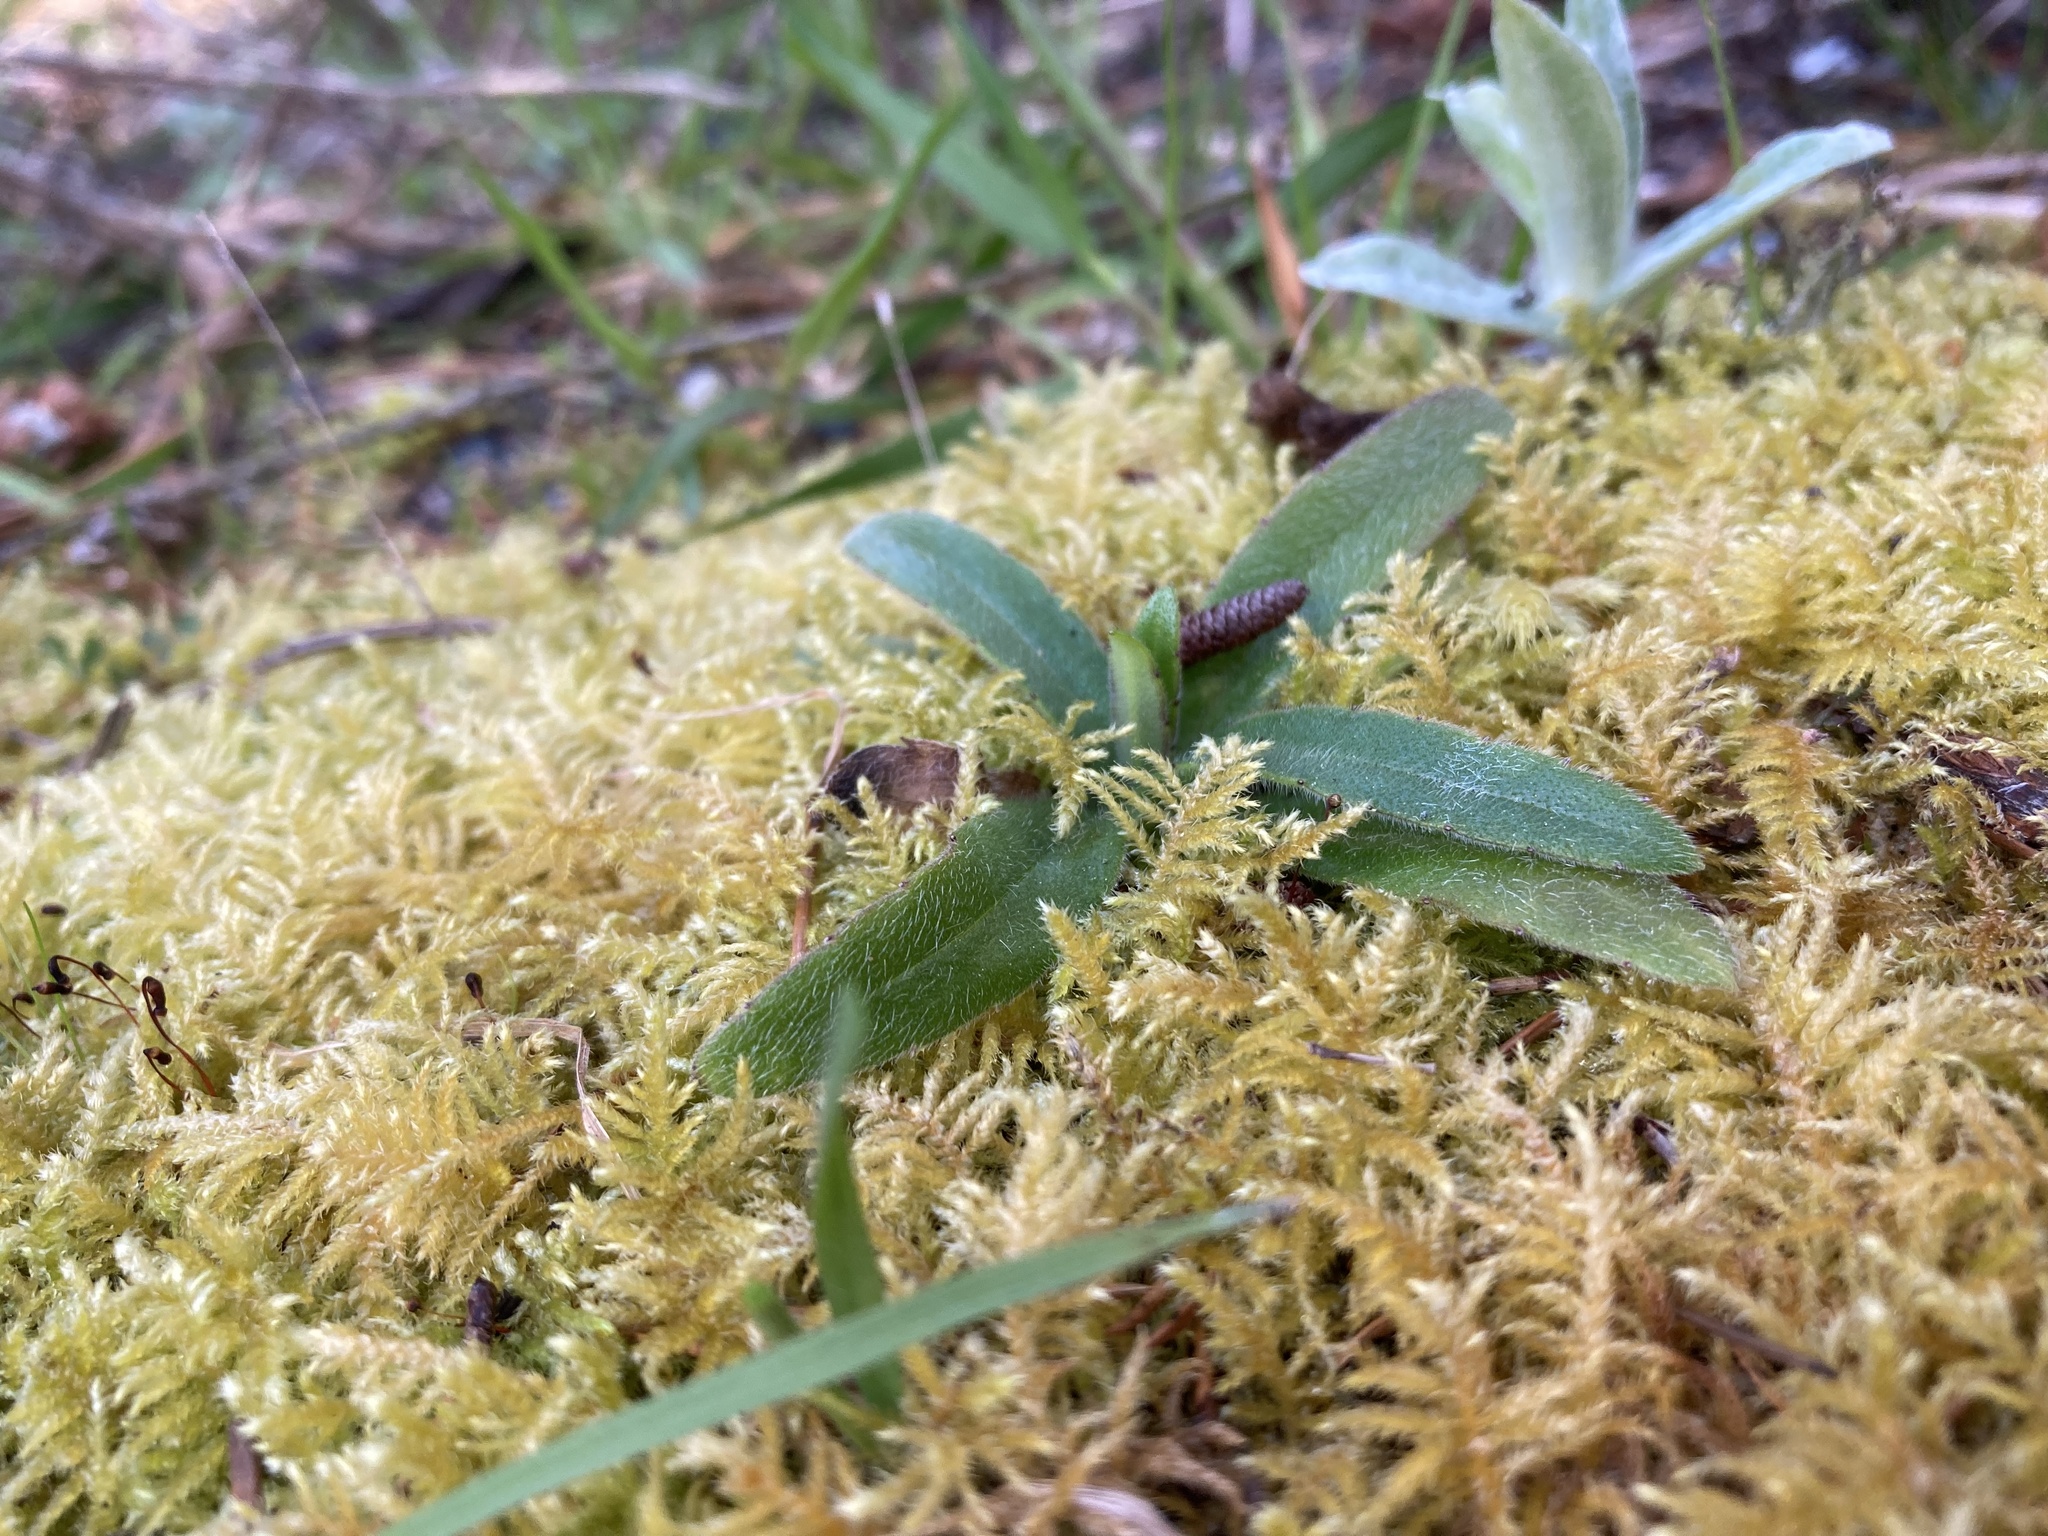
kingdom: Plantae
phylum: Tracheophyta
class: Magnoliopsida
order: Asterales
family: Asteraceae
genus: Anisocarpus
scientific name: Anisocarpus madioides
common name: Woodland madia
